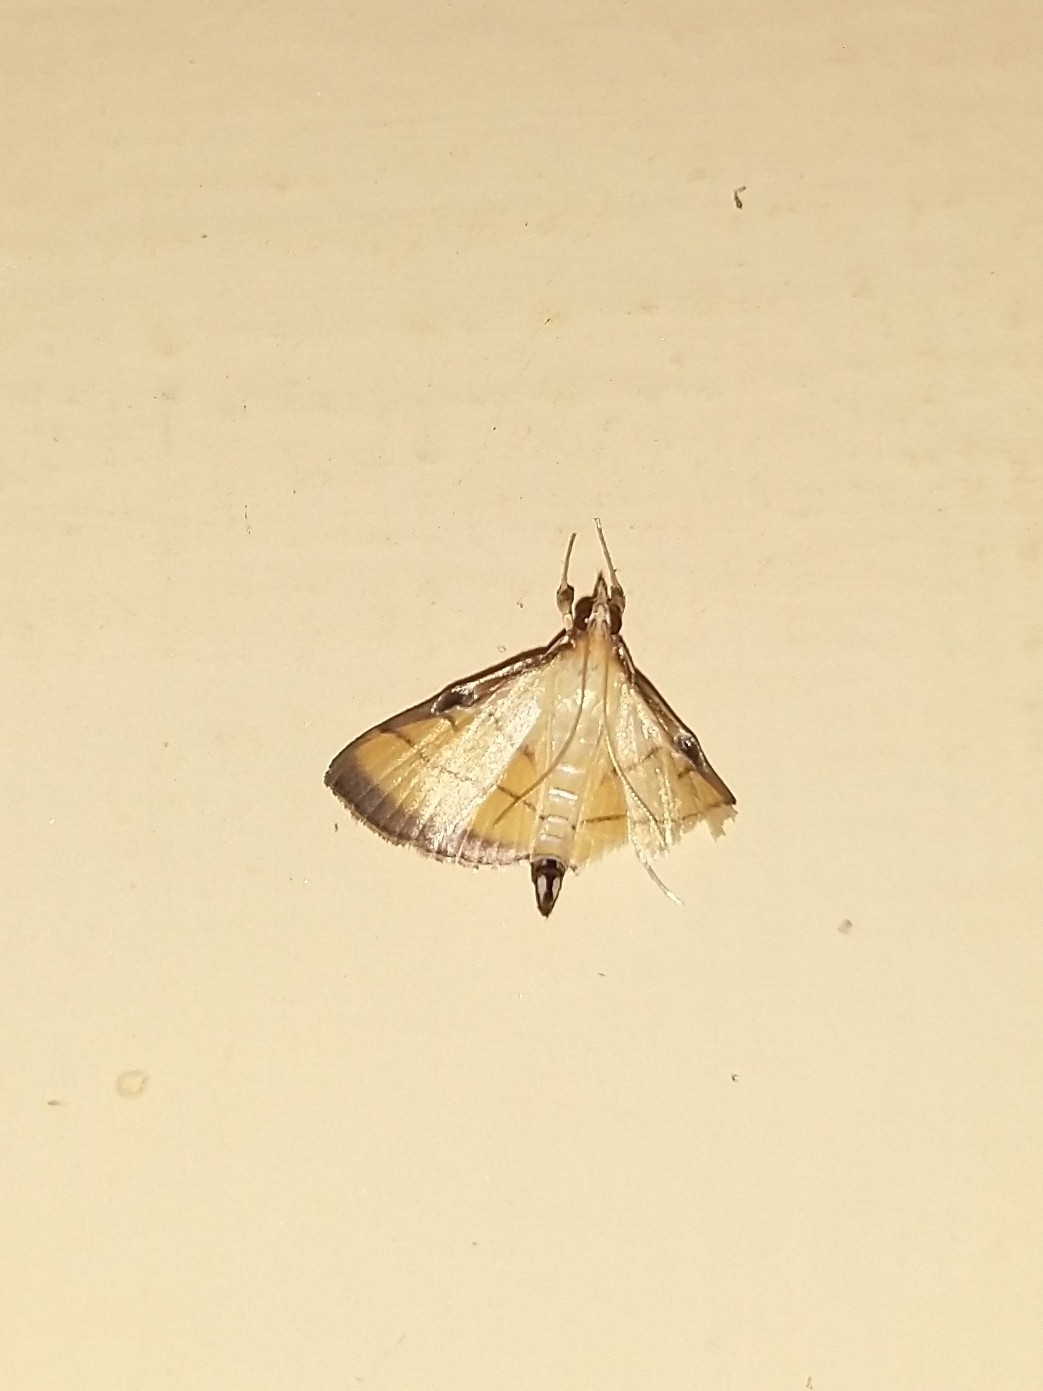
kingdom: Animalia
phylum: Arthropoda
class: Insecta
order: Lepidoptera
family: Crambidae
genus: Cnaphalocrocis
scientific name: Cnaphalocrocis medinalis
